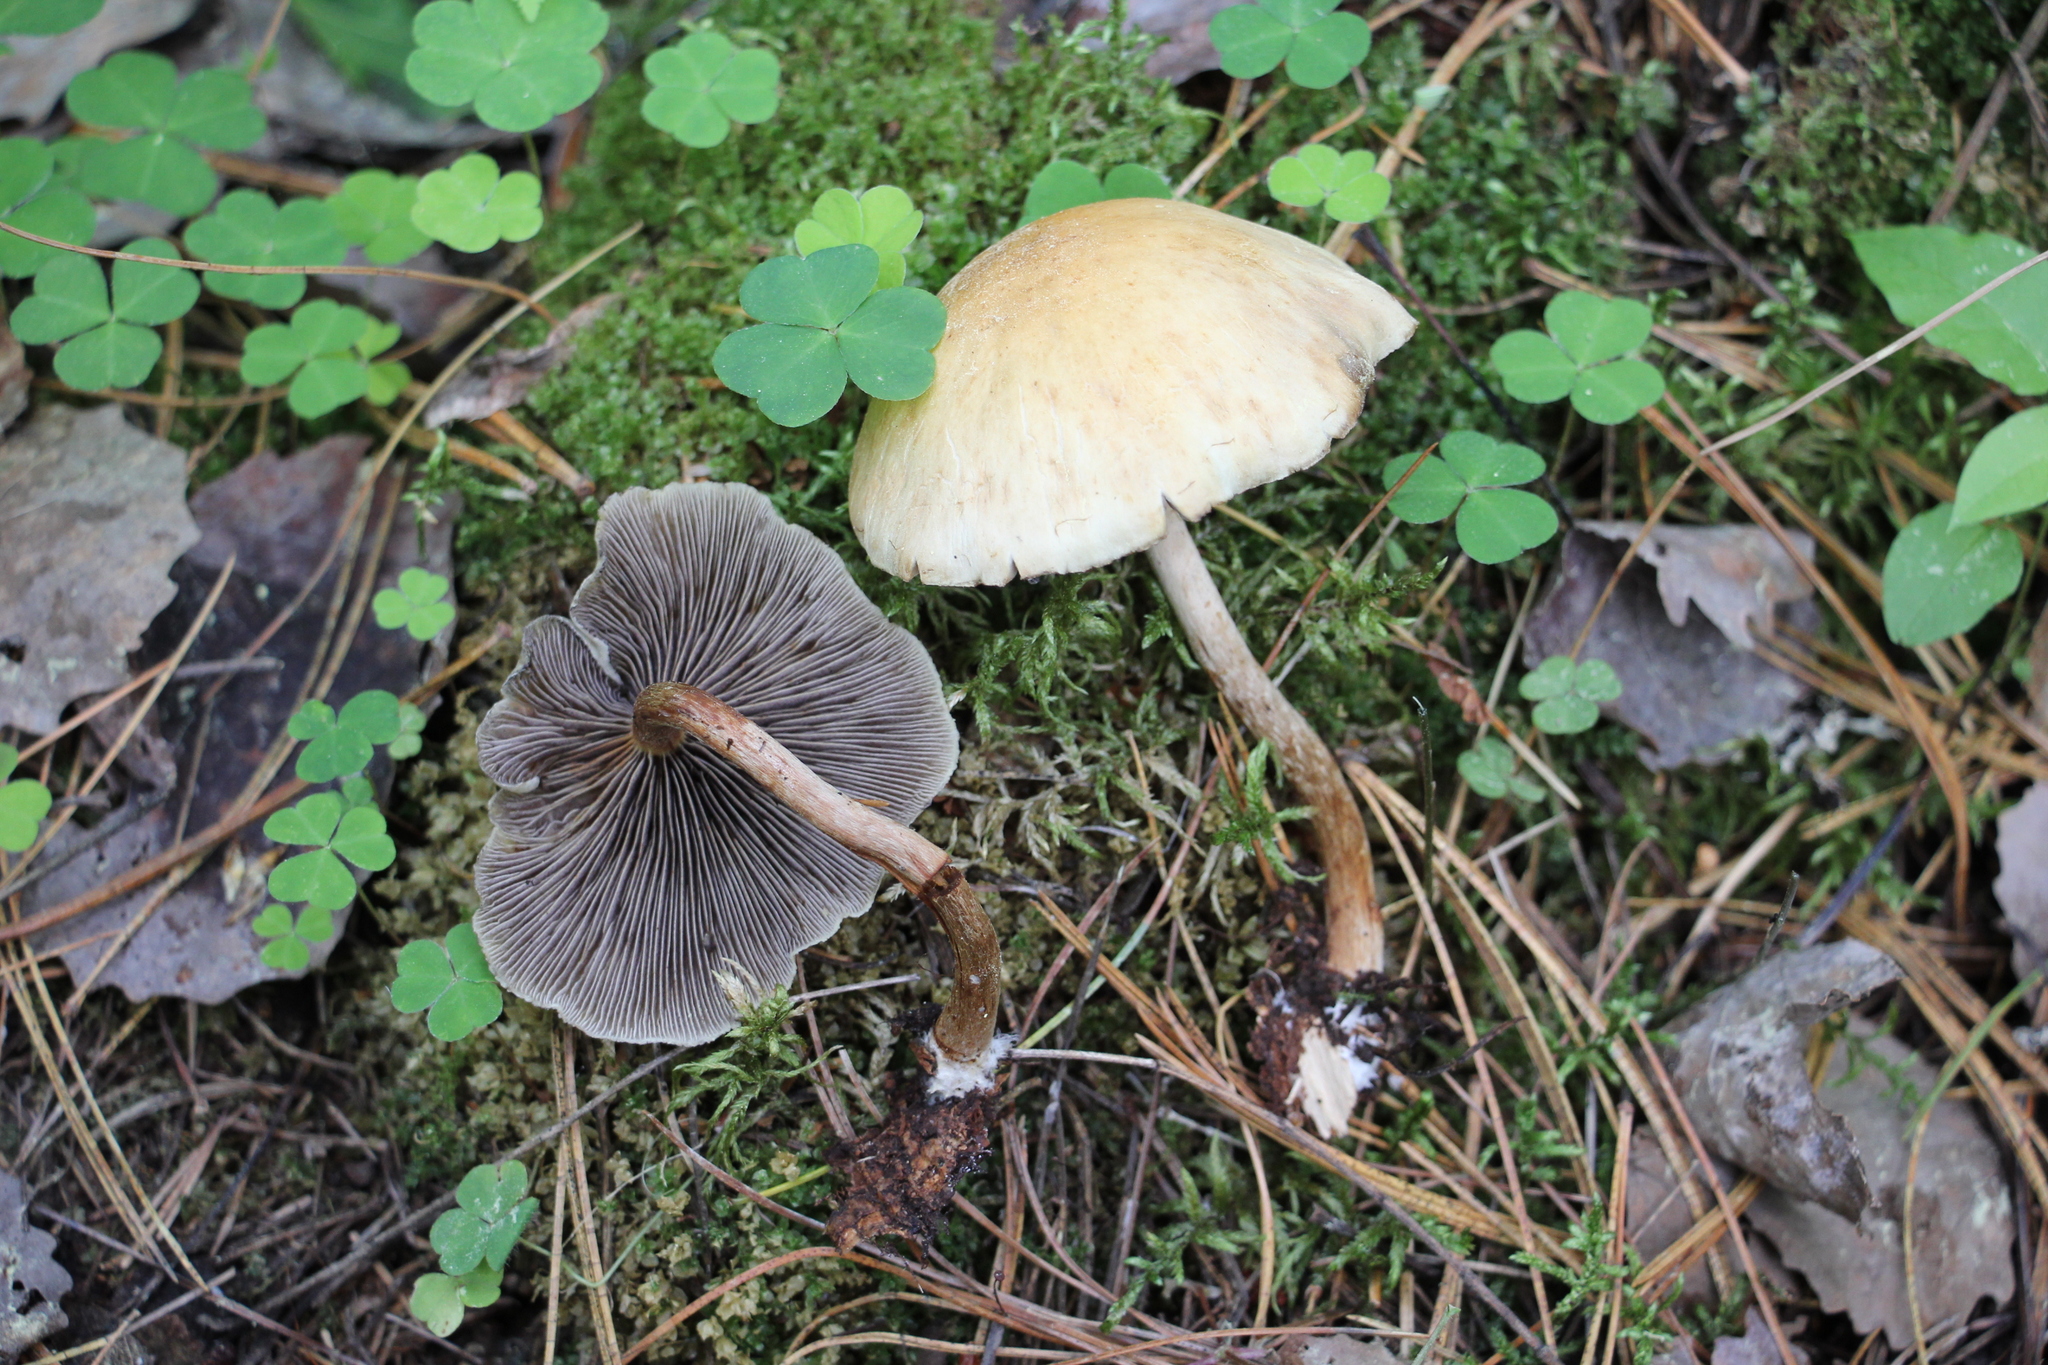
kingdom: Fungi
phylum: Basidiomycota
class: Agaricomycetes
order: Agaricales
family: Strophariaceae
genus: Hypholoma
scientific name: Hypholoma capnoides
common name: Conifer tuft
